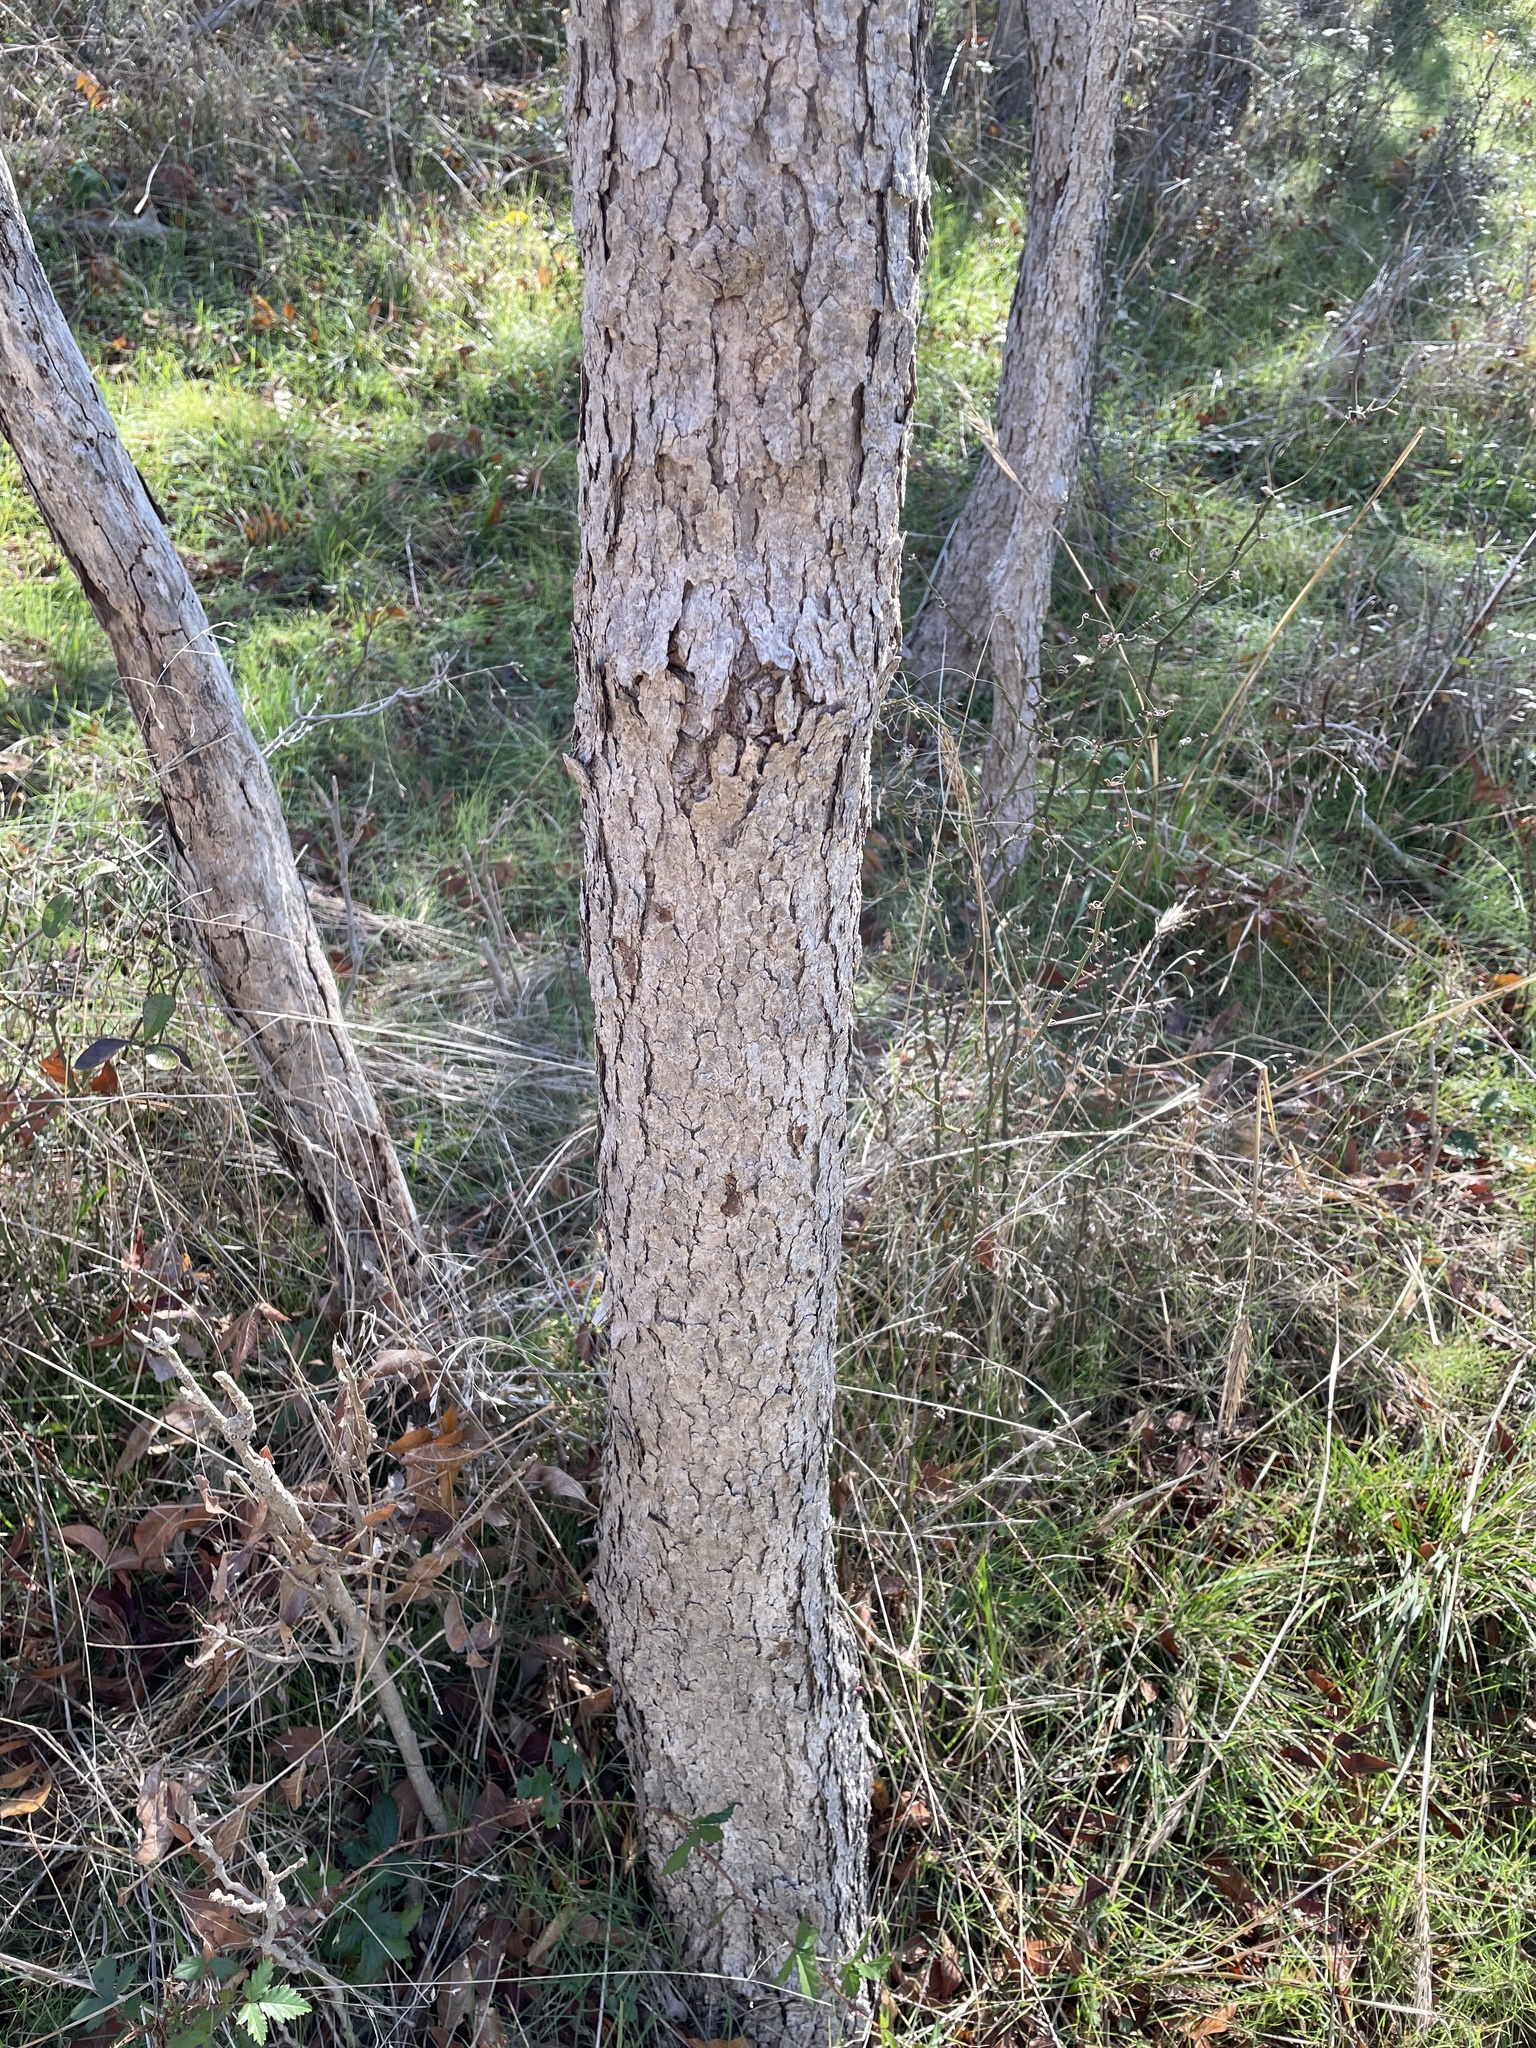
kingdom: Plantae
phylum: Tracheophyta
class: Magnoliopsida
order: Sapindales
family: Sapindaceae
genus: Sapindus
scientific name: Sapindus drummondii
